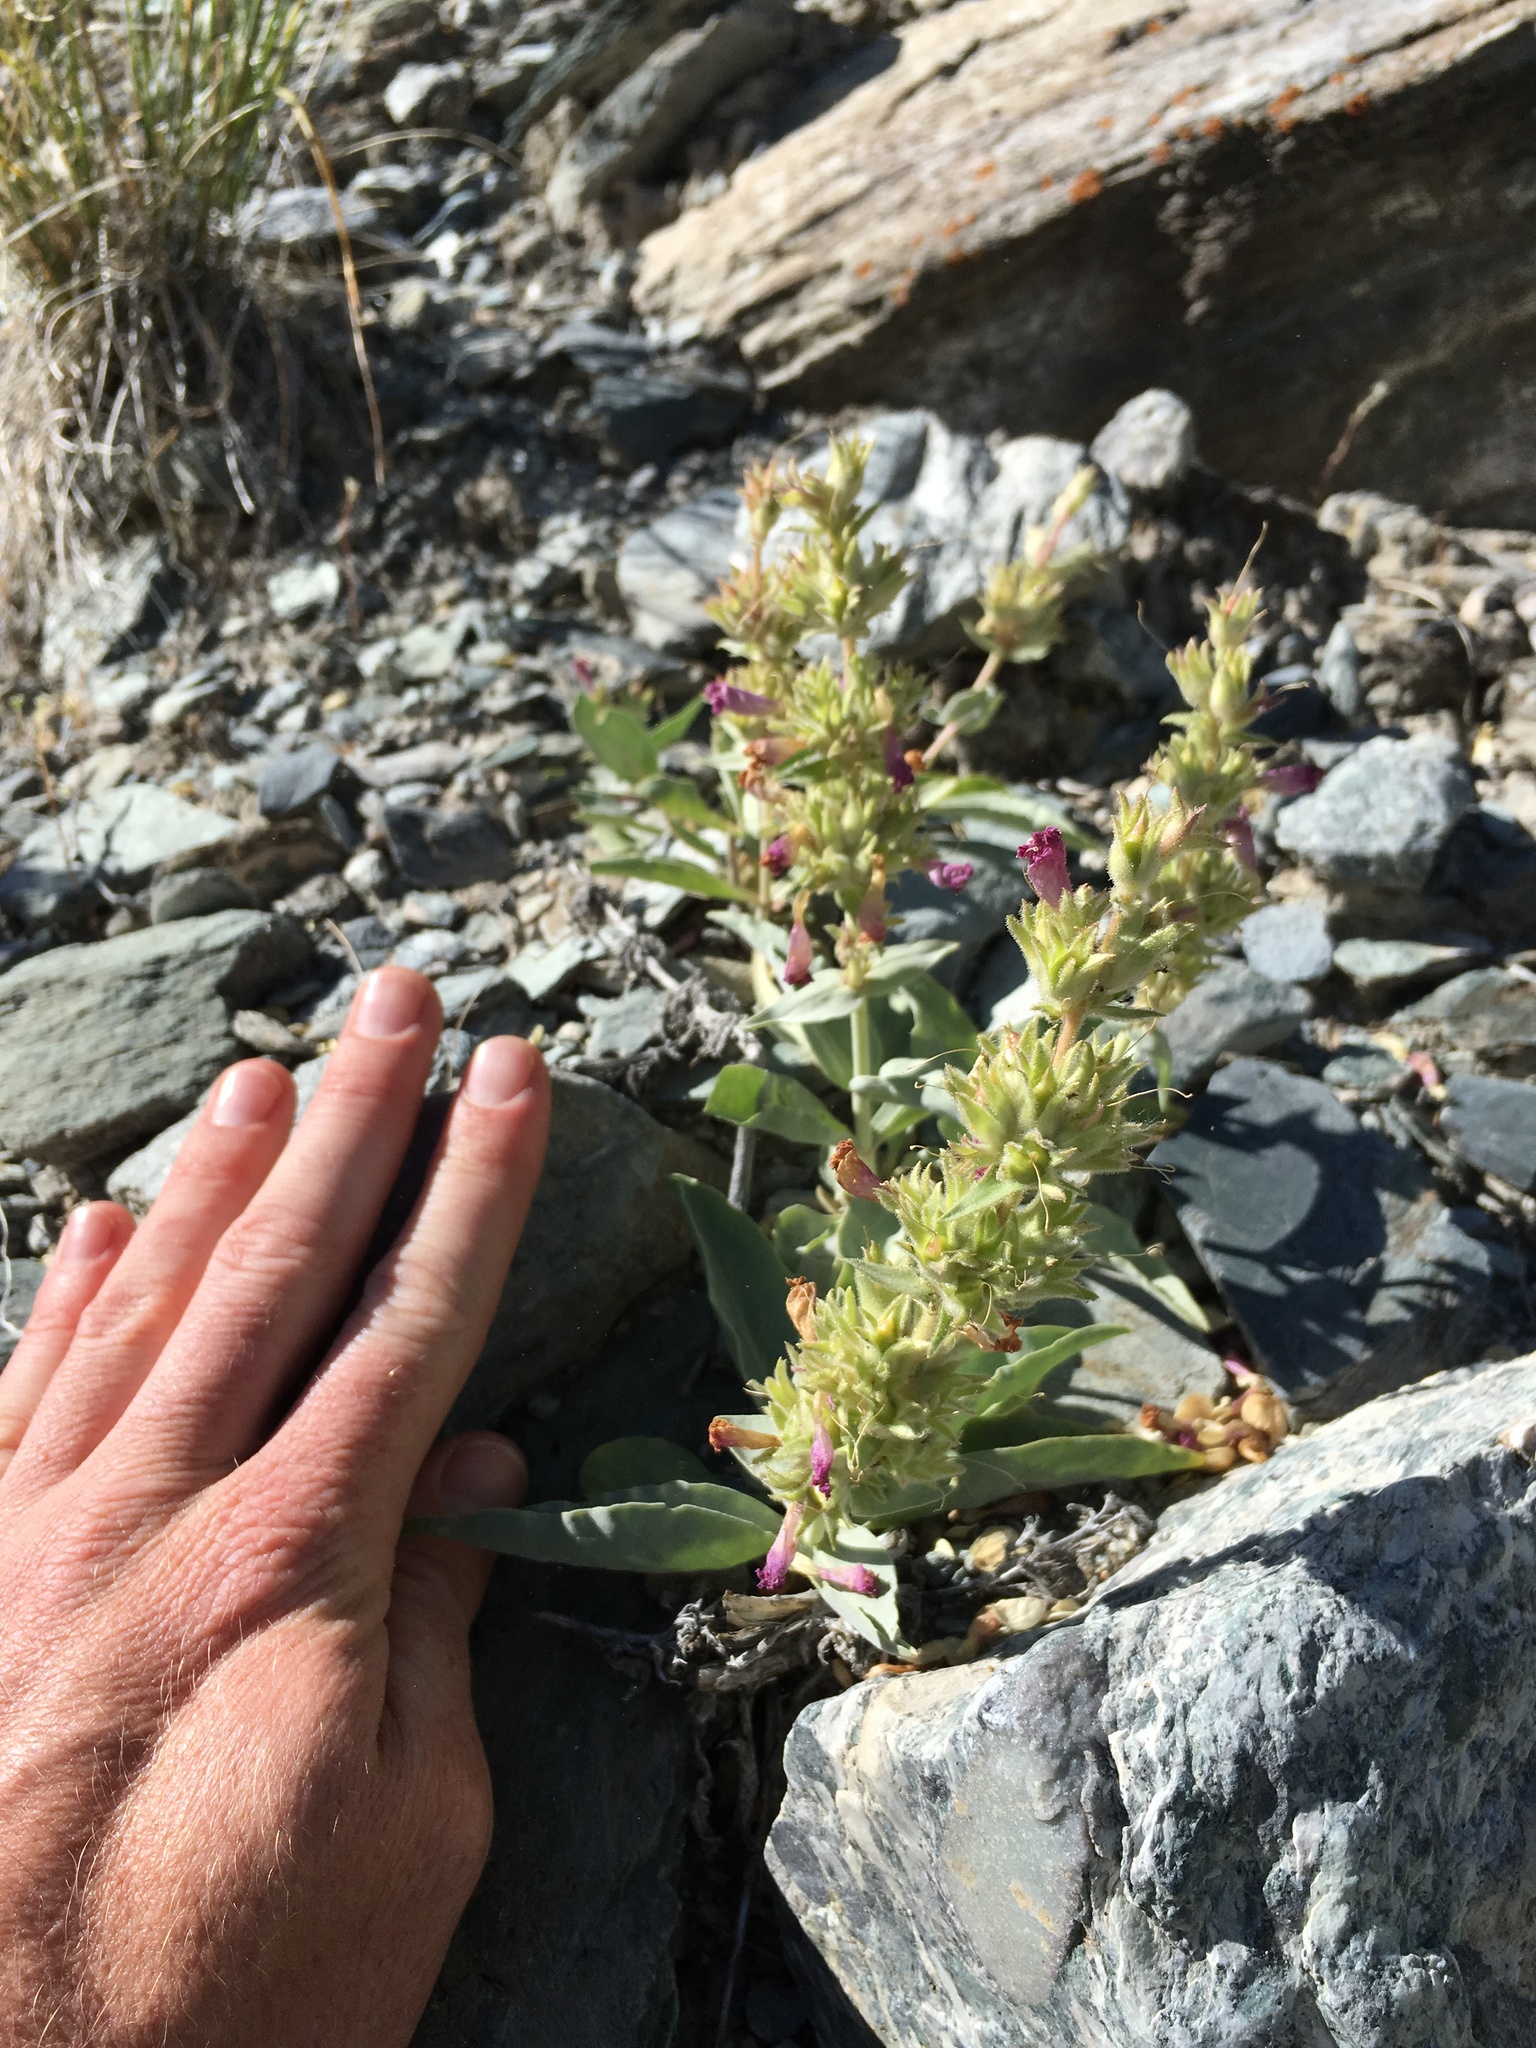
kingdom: Plantae
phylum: Tracheophyta
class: Magnoliopsida
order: Lamiales
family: Plantaginaceae
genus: Penstemon
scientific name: Penstemon monoensis
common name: Mono penstemon
